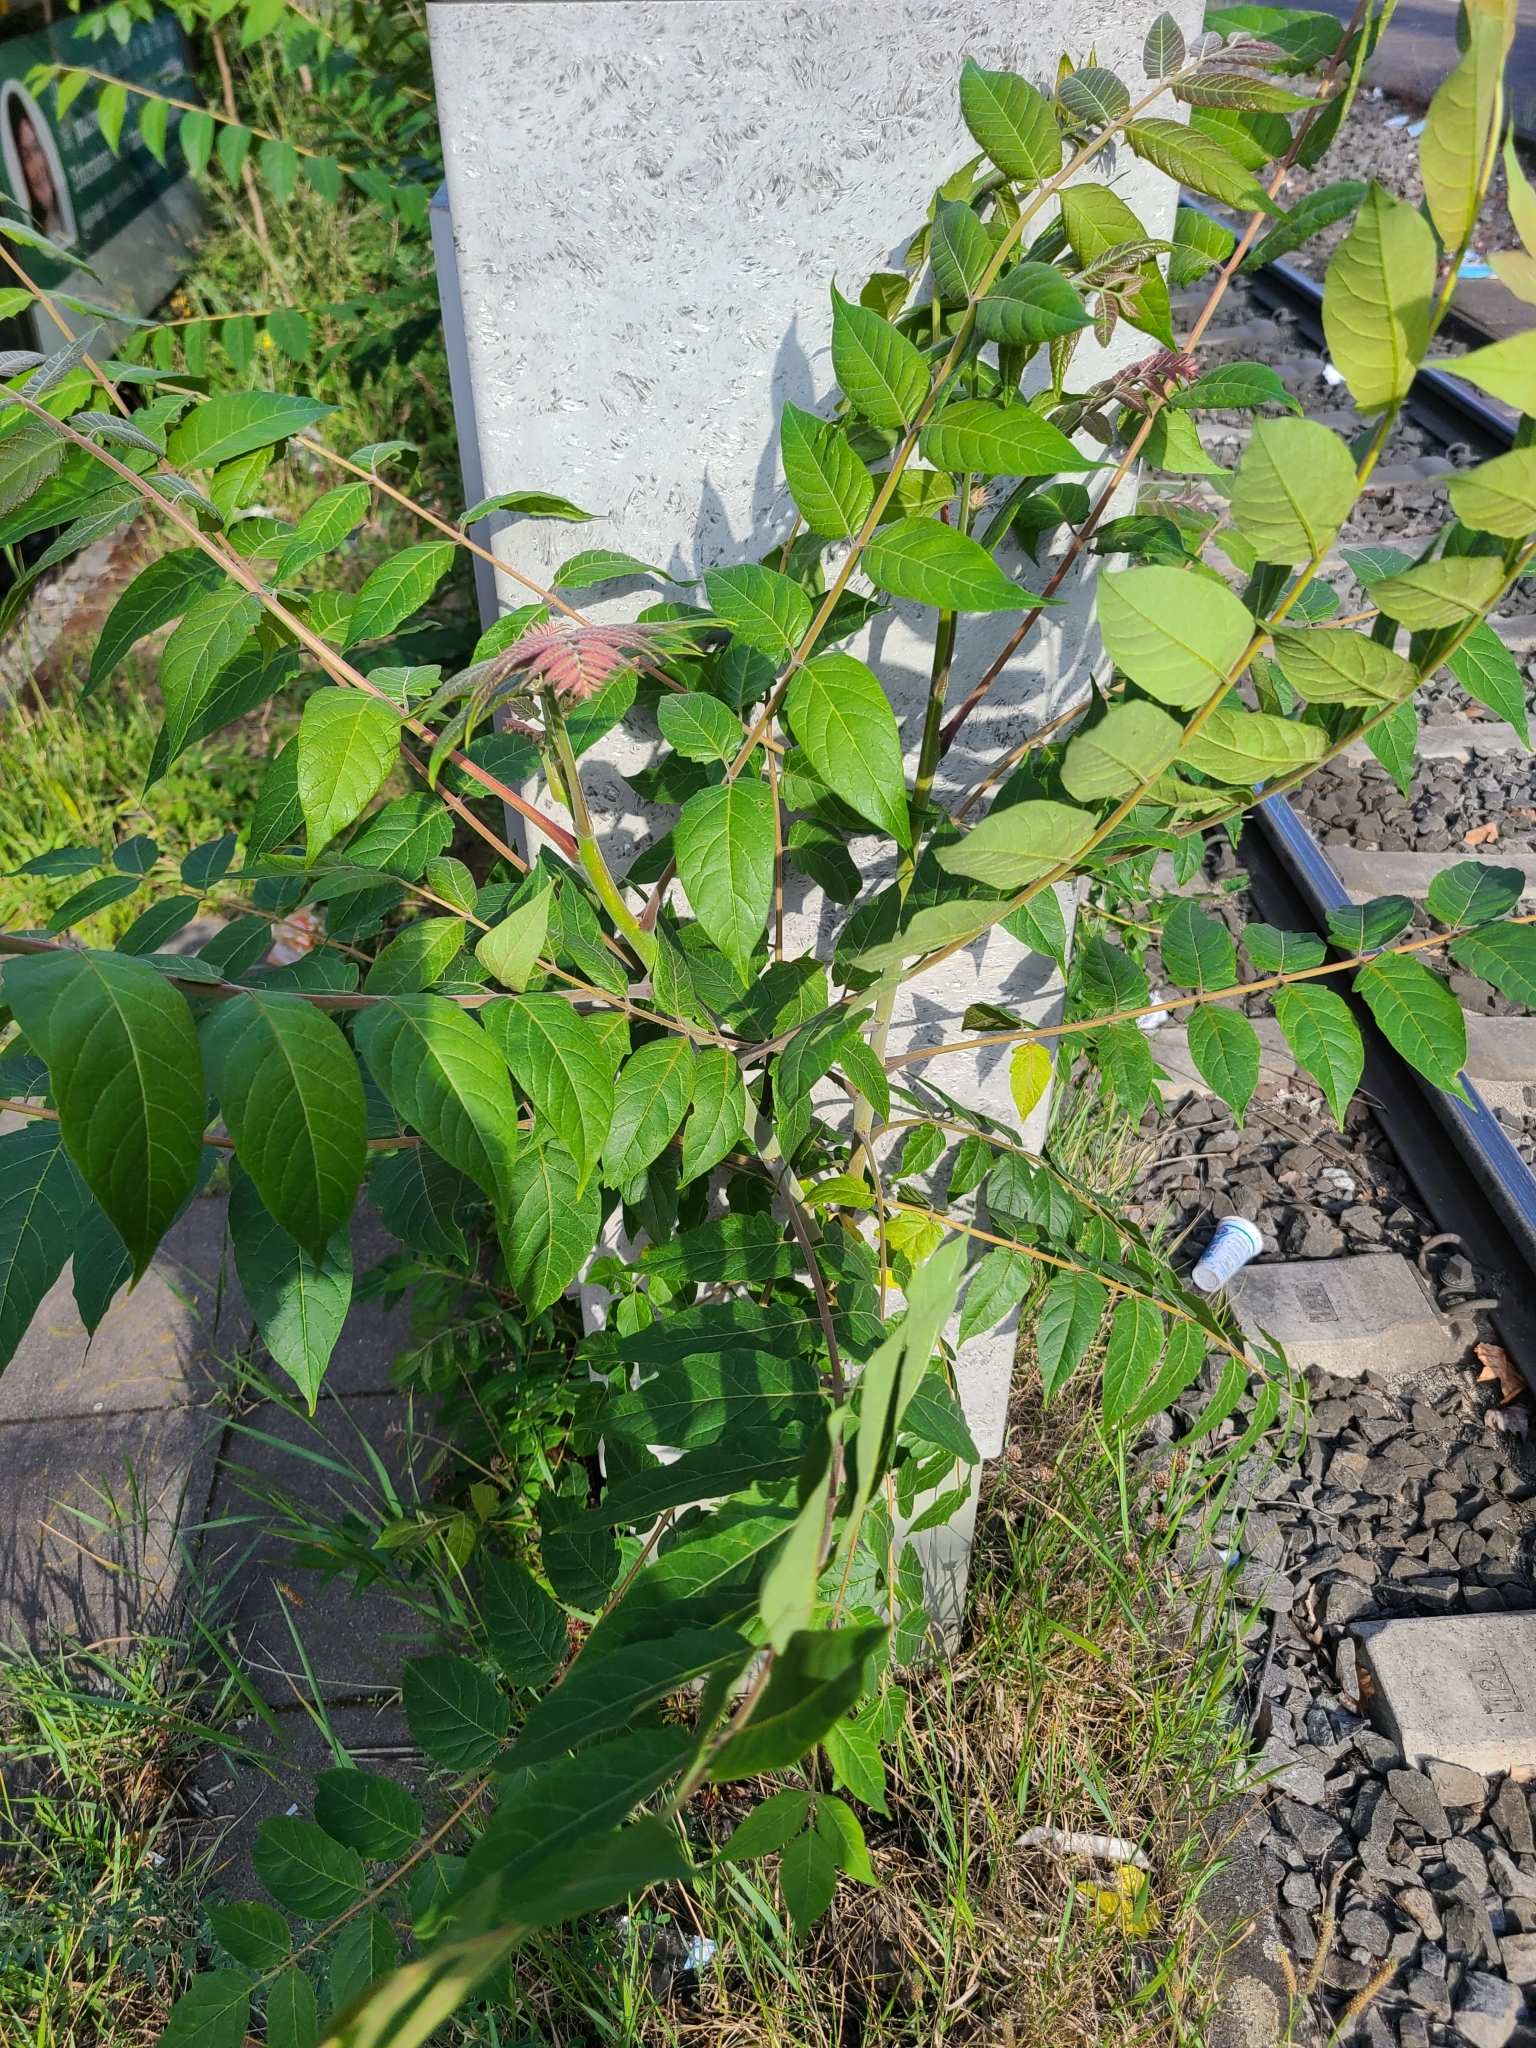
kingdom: Plantae
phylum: Tracheophyta
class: Magnoliopsida
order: Sapindales
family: Simaroubaceae
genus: Ailanthus
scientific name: Ailanthus altissima
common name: Tree-of-heaven
